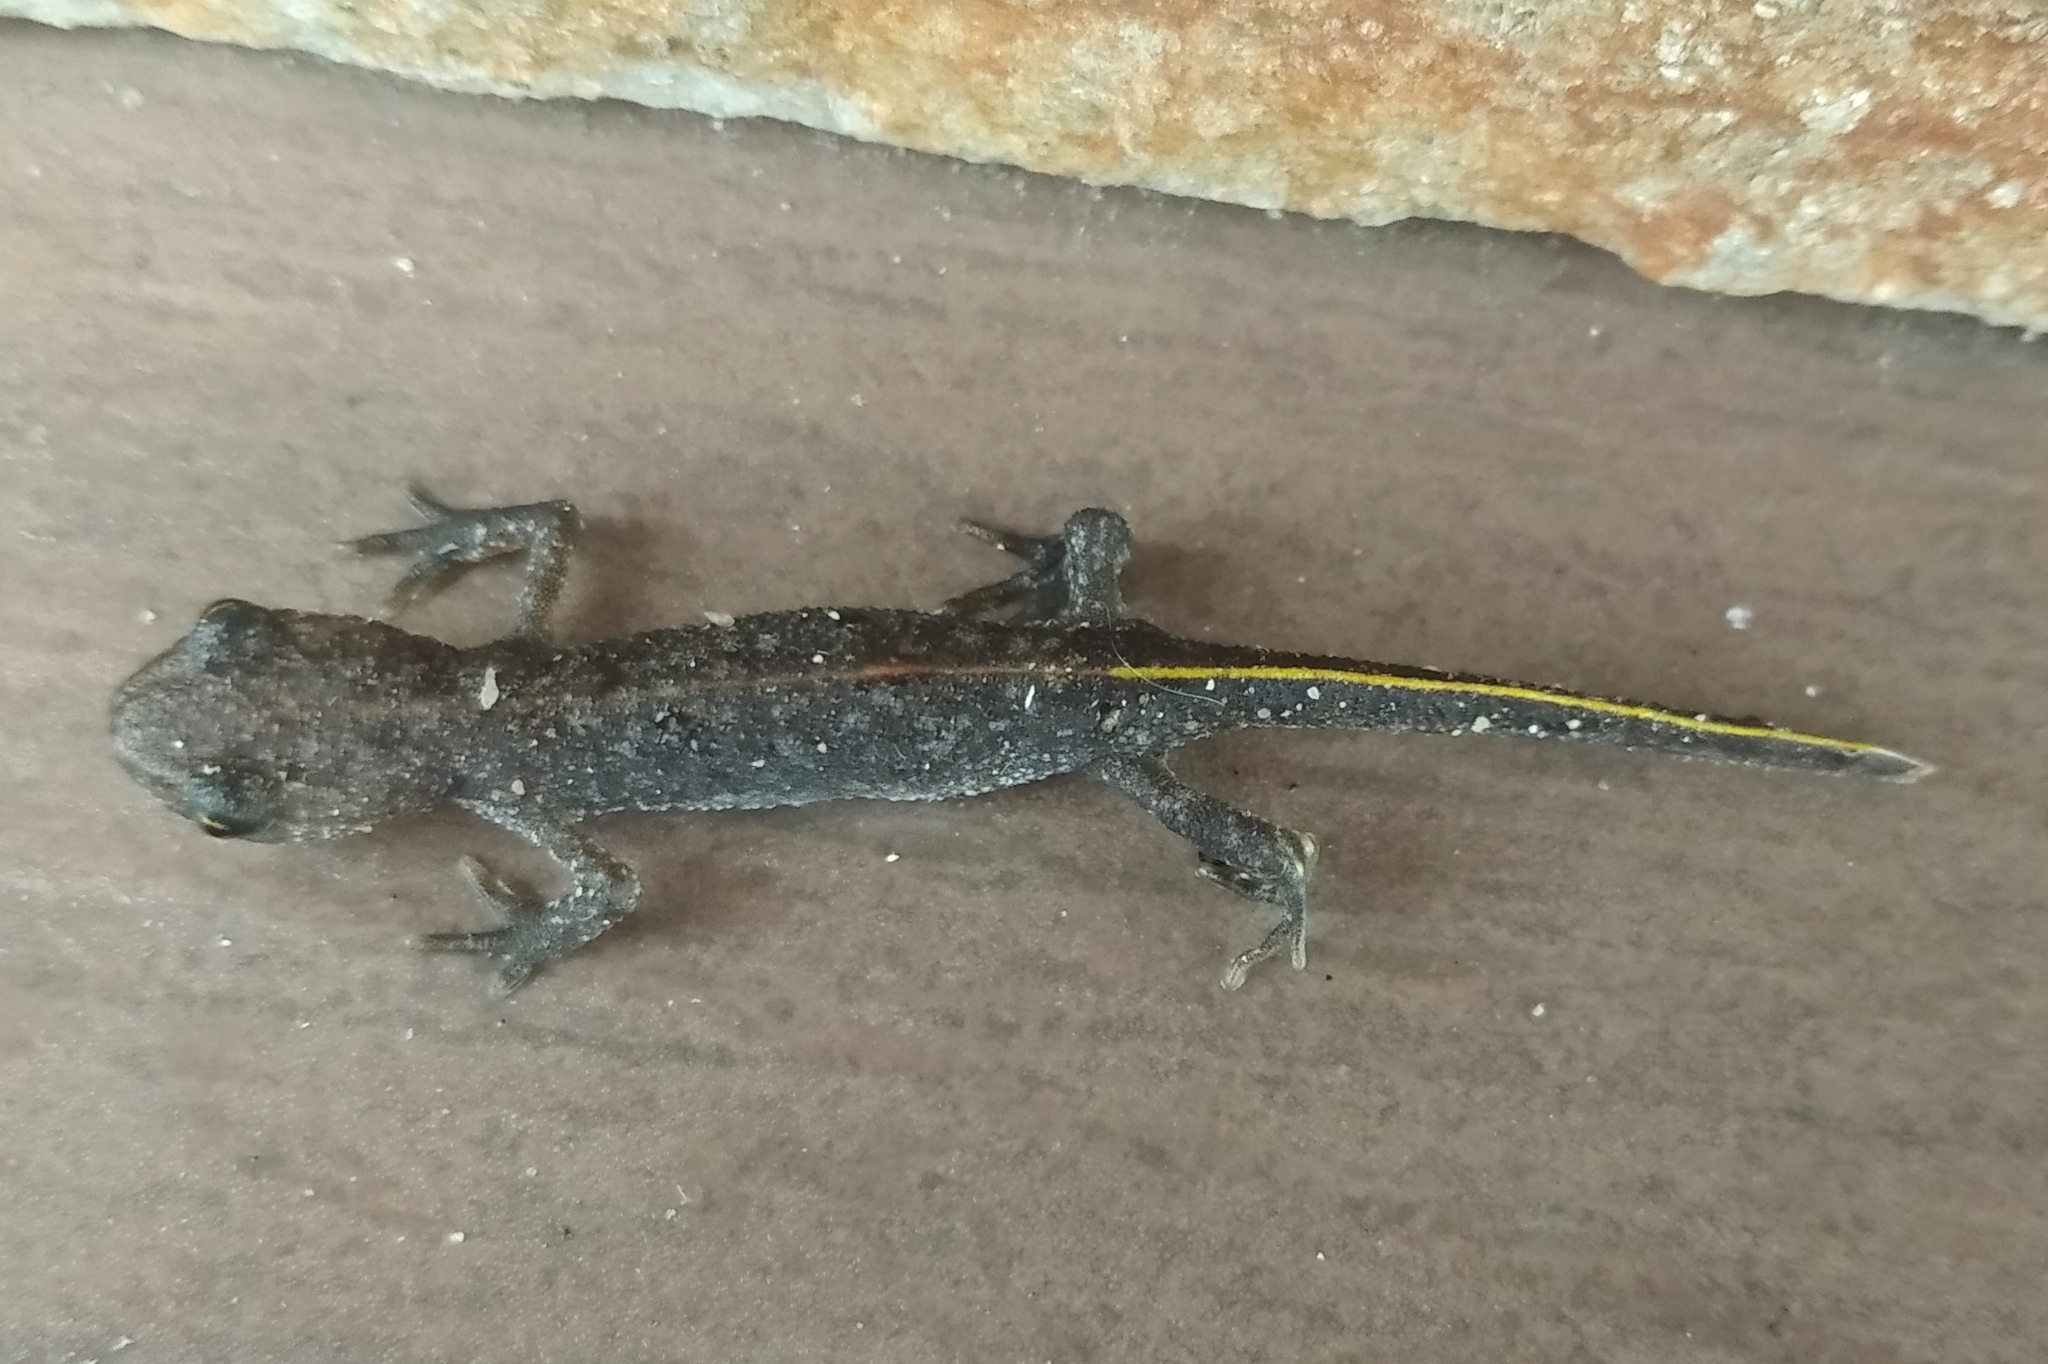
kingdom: Animalia
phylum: Chordata
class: Amphibia
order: Caudata
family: Salamandridae
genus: Triturus
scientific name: Triturus ivanbureschi
